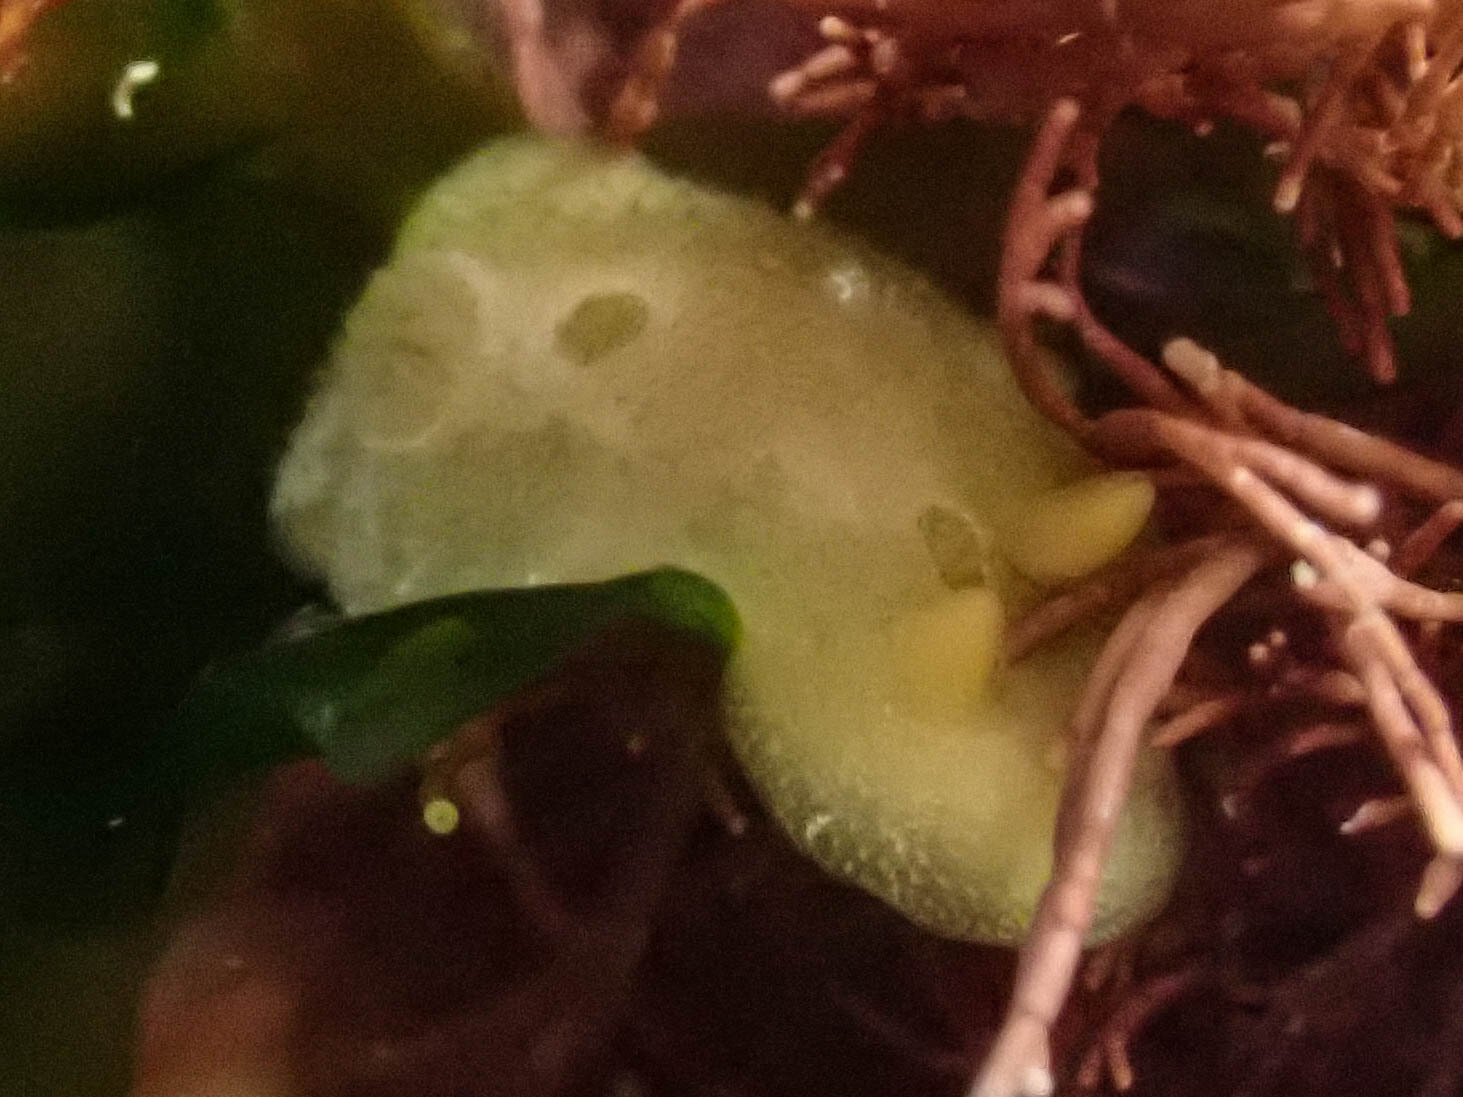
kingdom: Animalia
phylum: Mollusca
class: Gastropoda
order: Nudibranchia
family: Cadlinidae
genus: Aldisa
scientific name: Aldisa sanguinea
